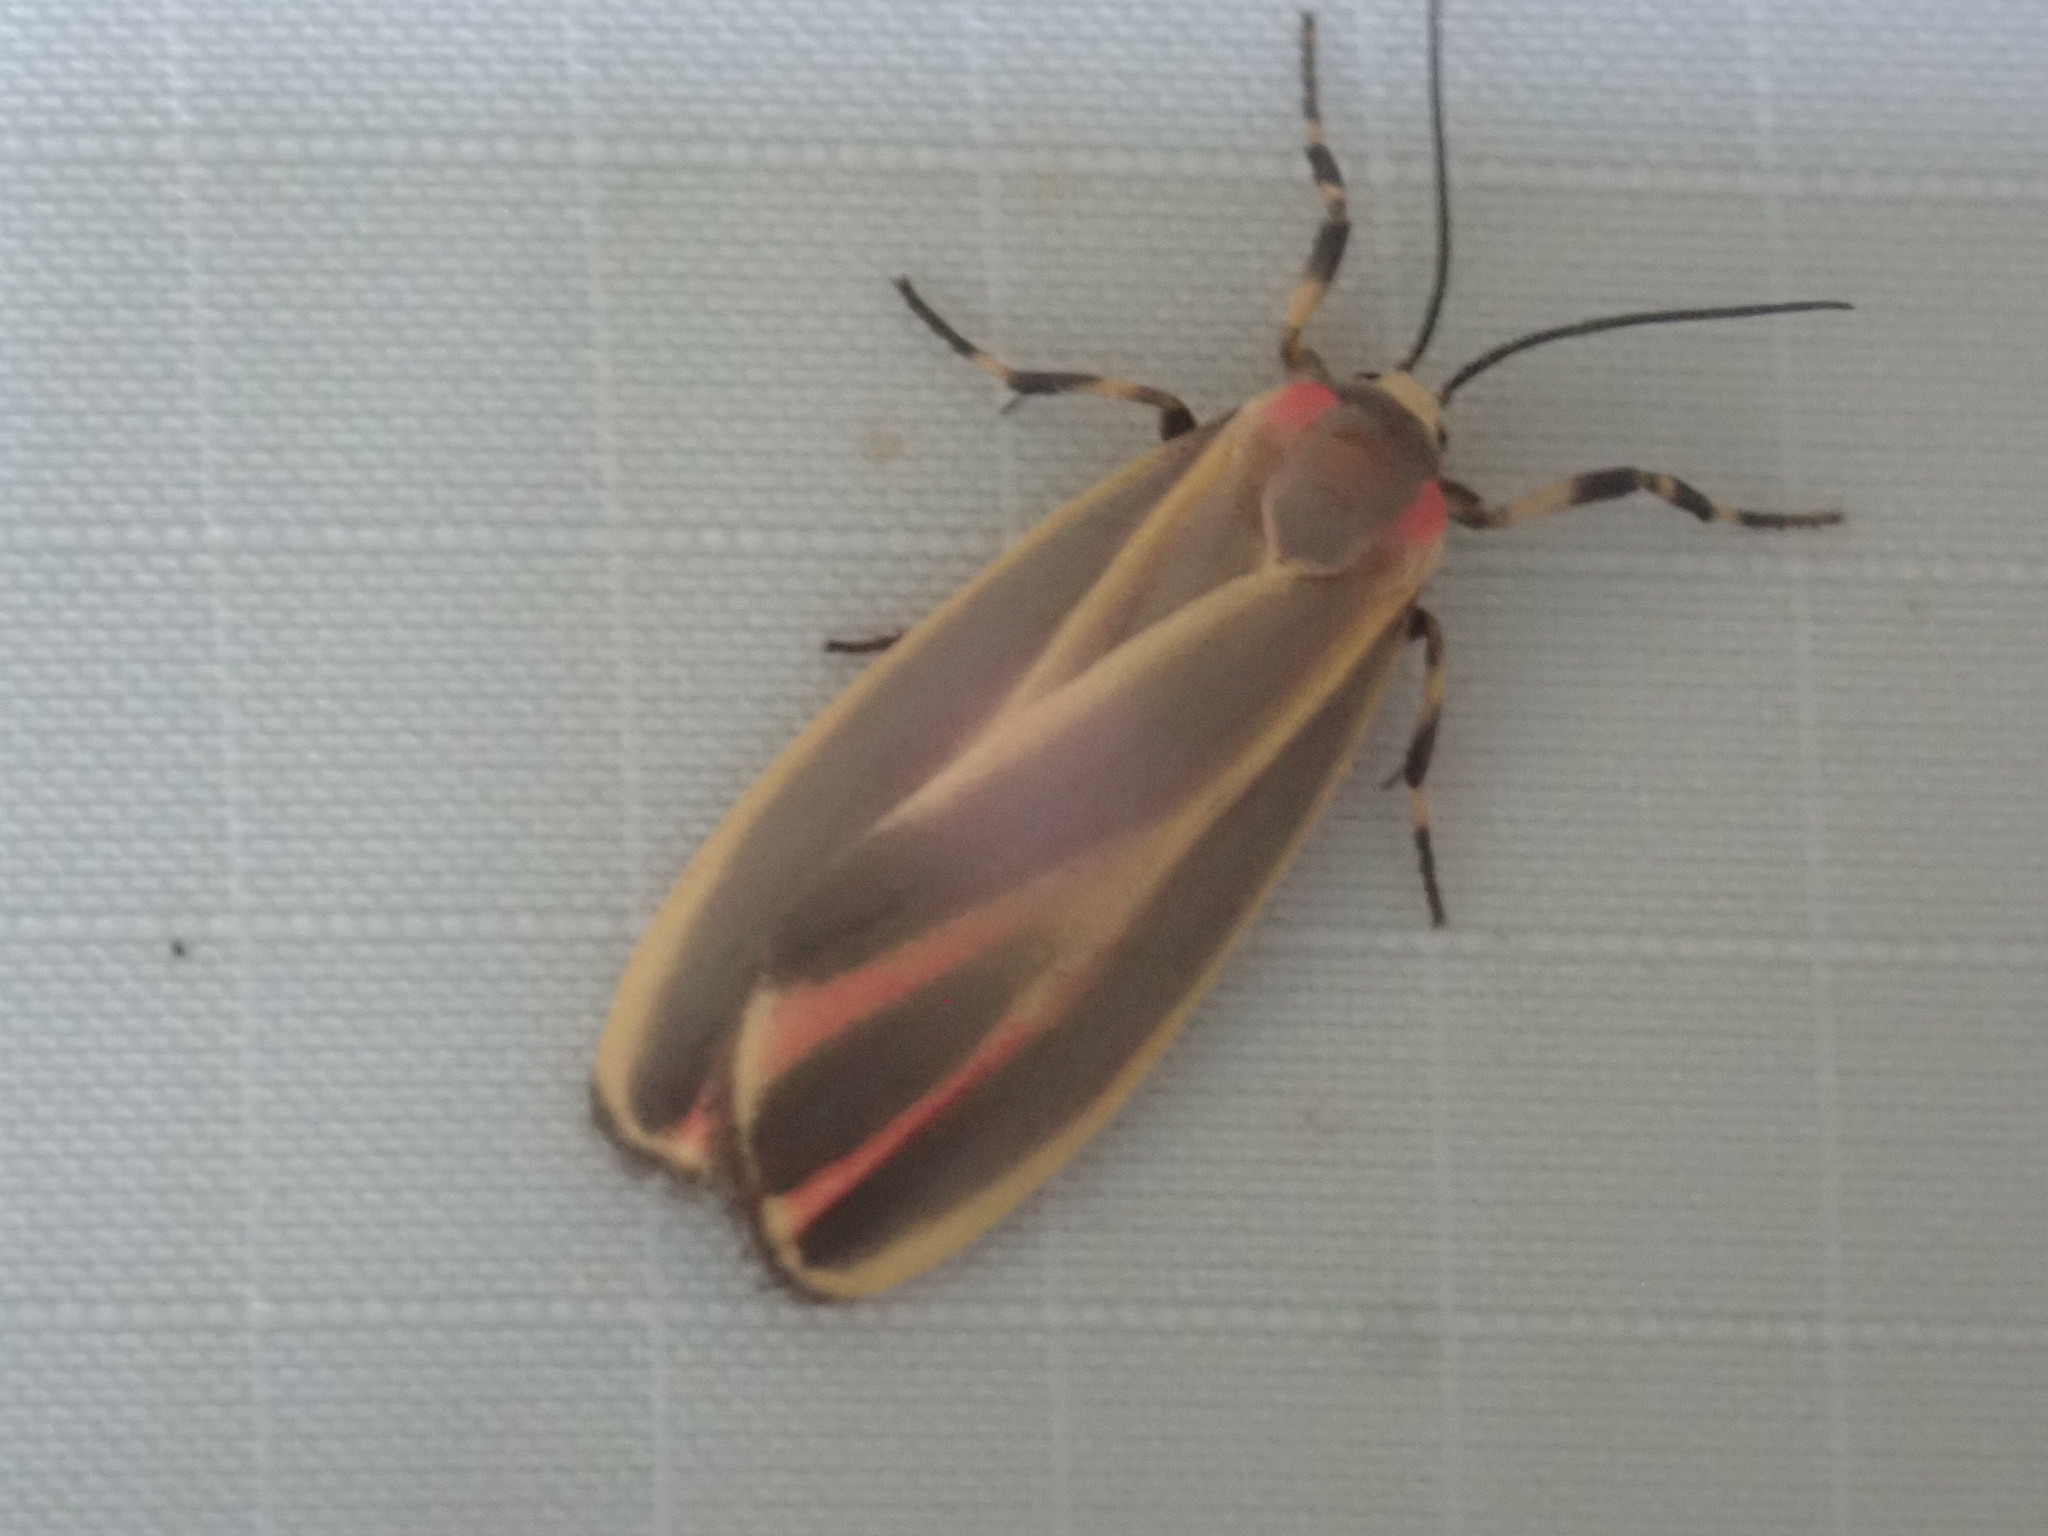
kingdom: Animalia
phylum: Arthropoda
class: Insecta
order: Lepidoptera
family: Erebidae
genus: Hypoprepia
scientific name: Hypoprepia fucosa
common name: Painted lichen moth
